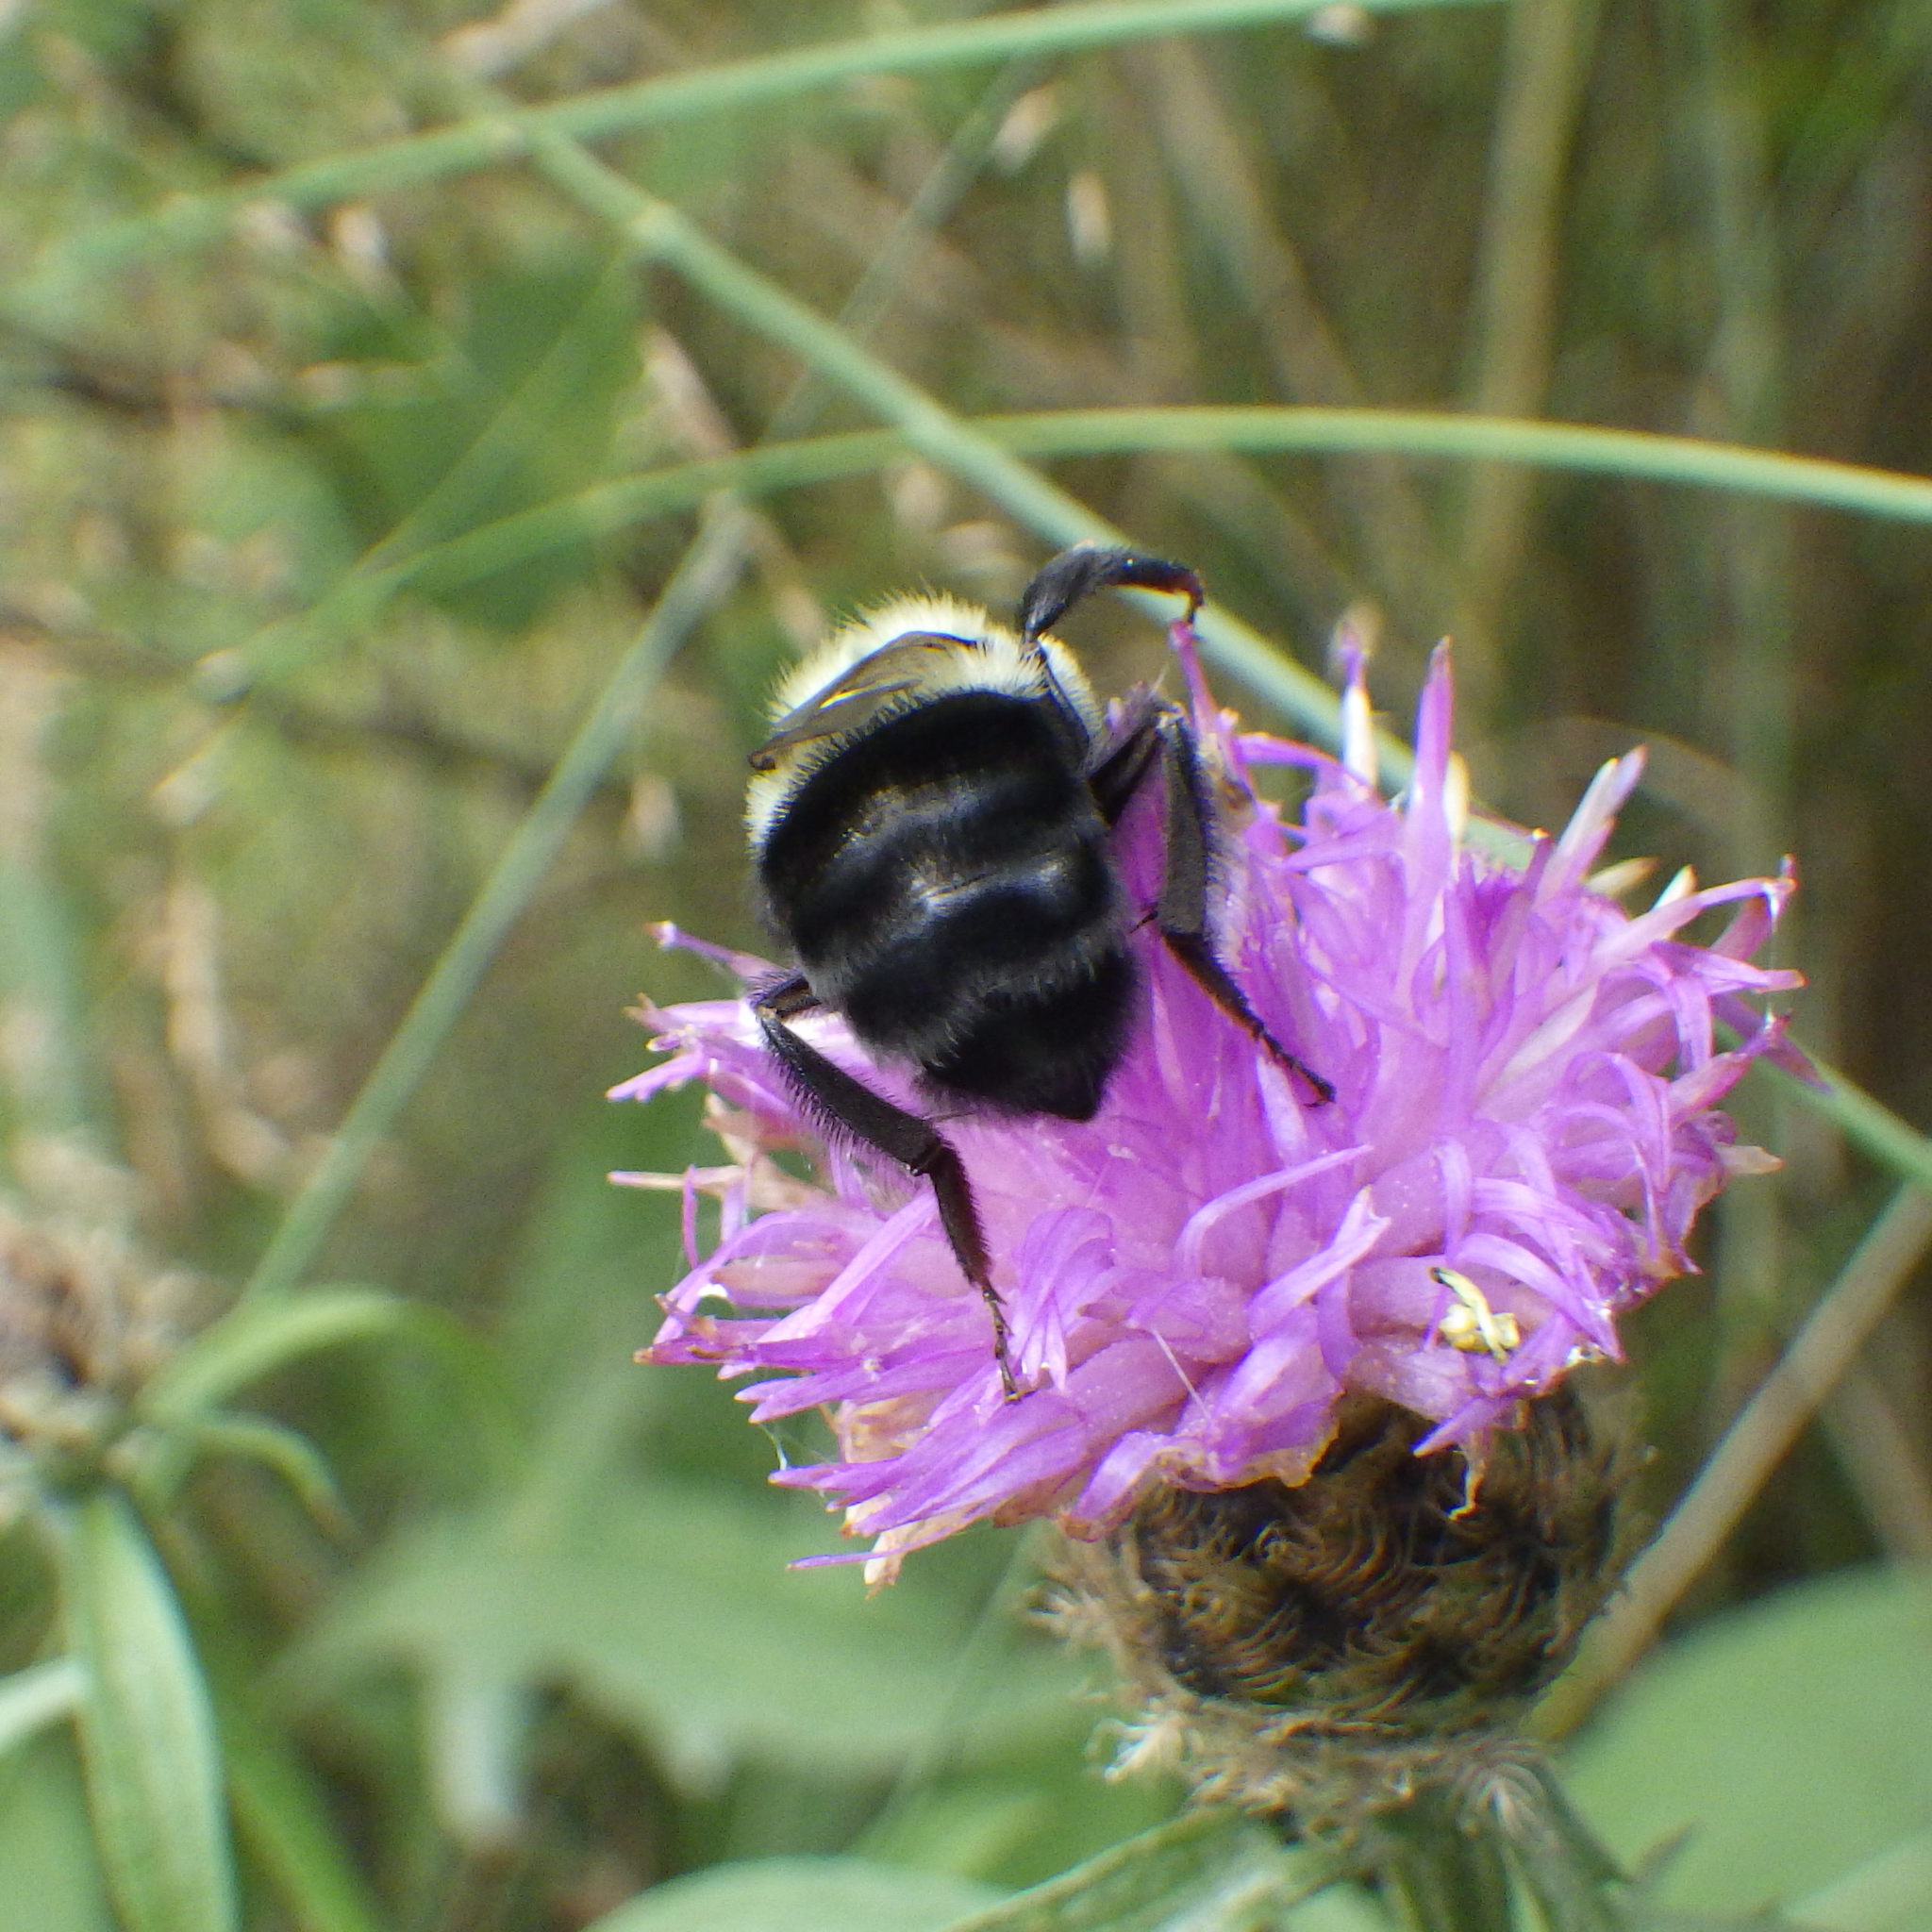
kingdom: Animalia
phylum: Arthropoda
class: Insecta
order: Hymenoptera
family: Apidae
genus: Bombus
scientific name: Bombus impatiens
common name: Common eastern bumble bee
